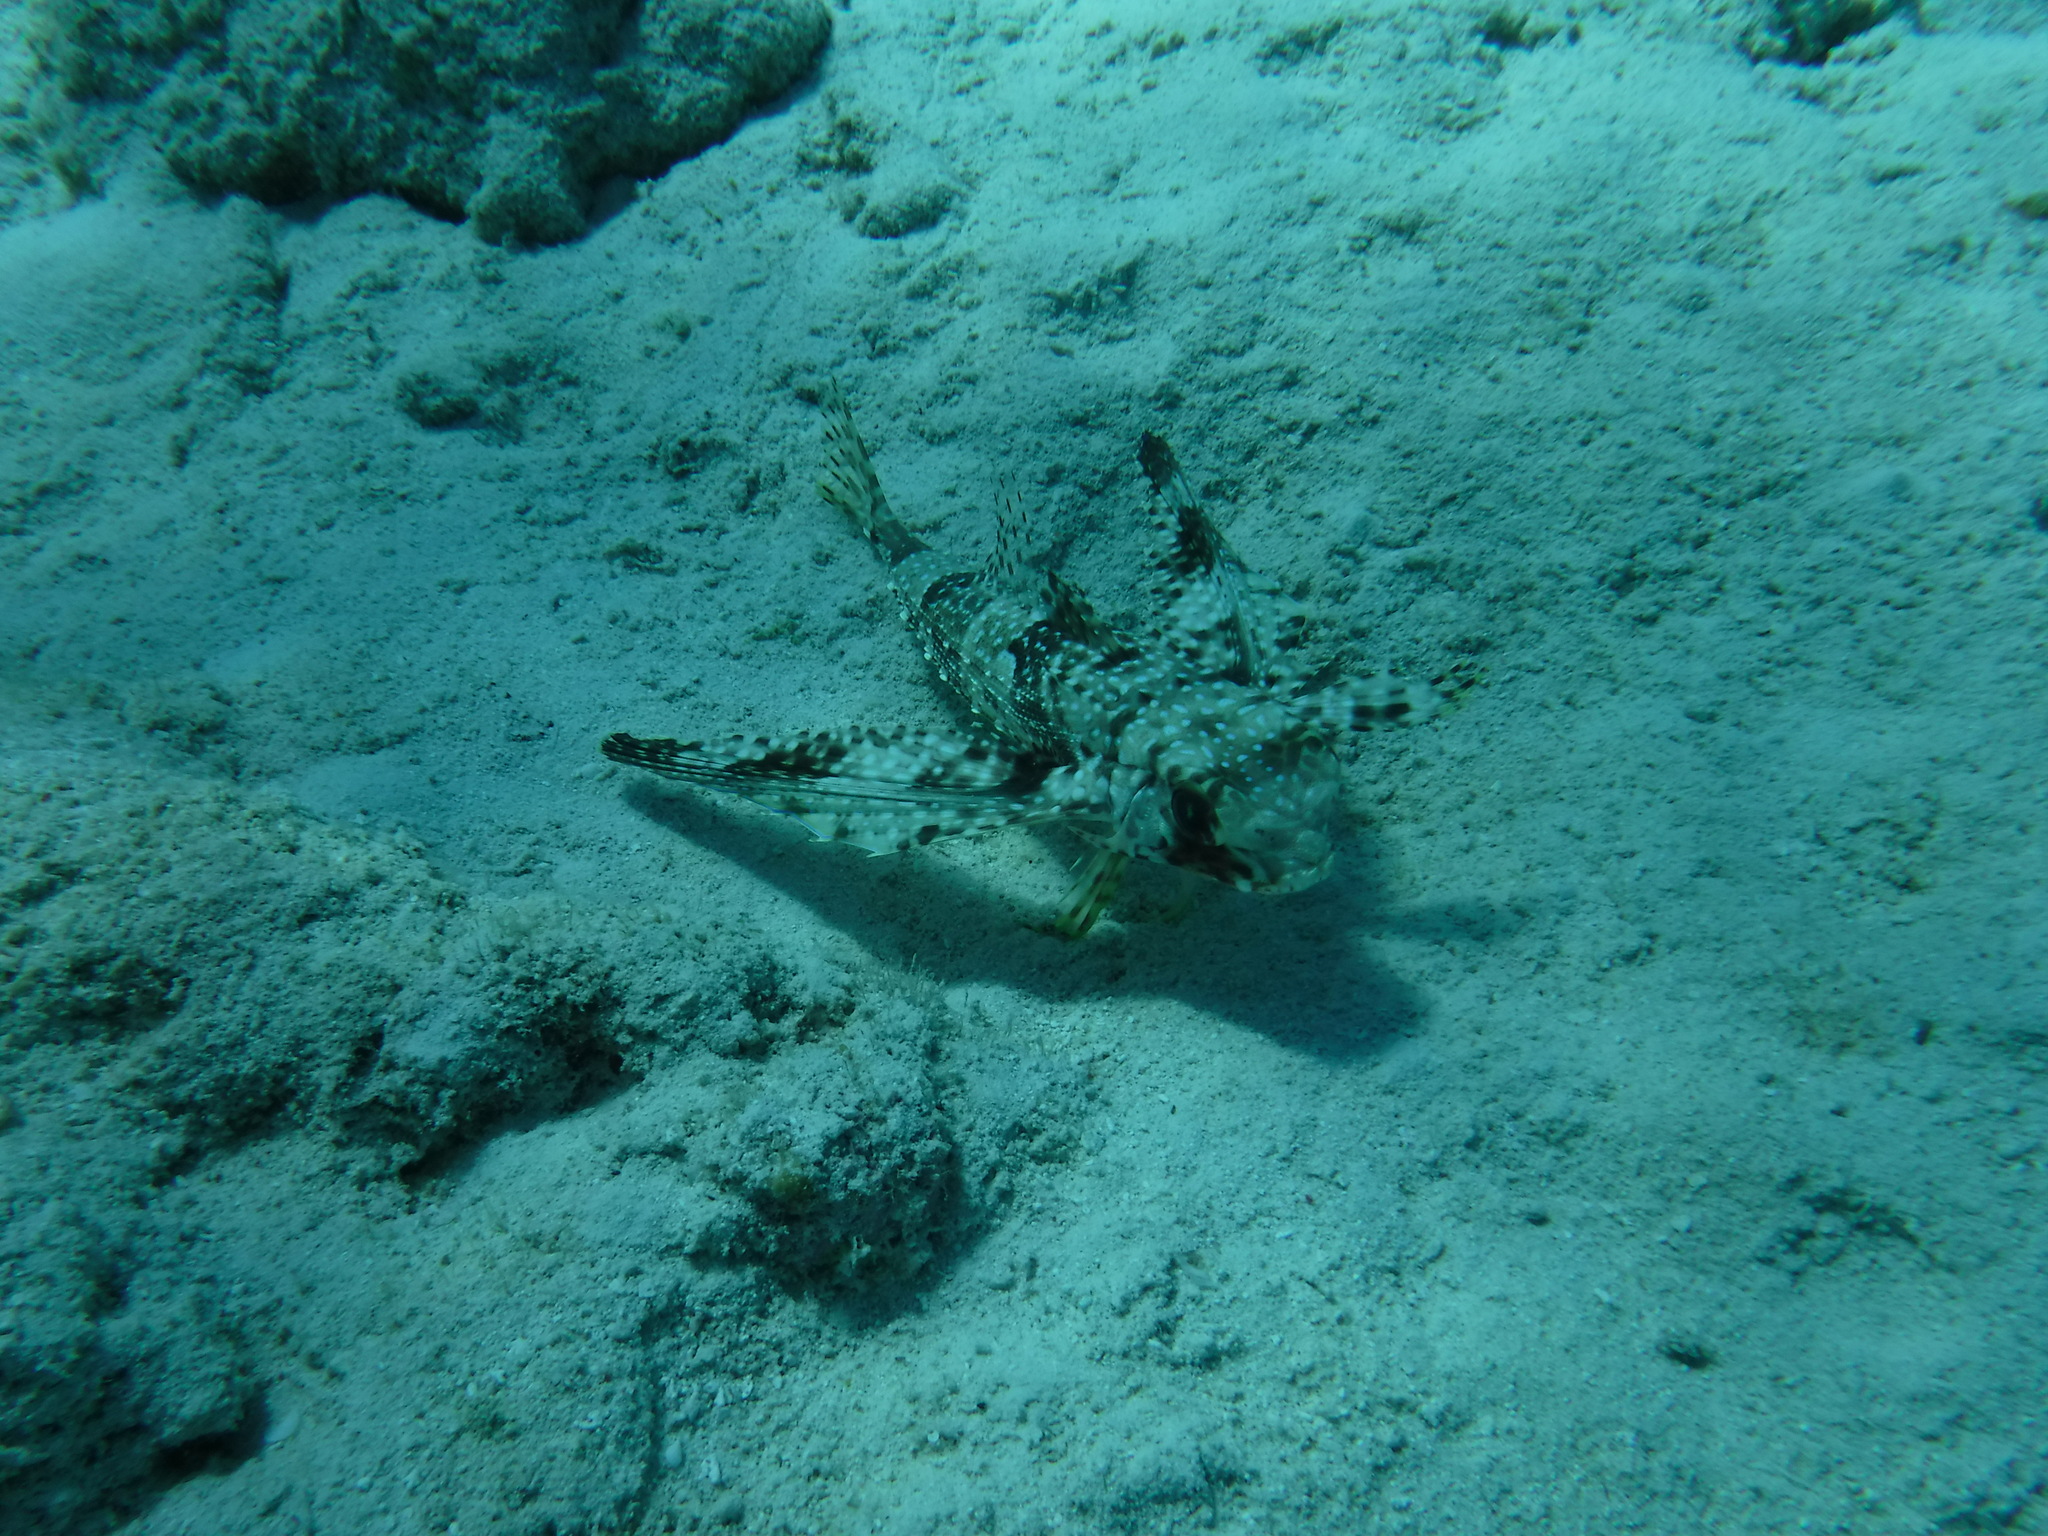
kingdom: Animalia
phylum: Chordata
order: Scorpaeniformes
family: Dactylopteridae
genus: Dactylopterus
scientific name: Dactylopterus volitans
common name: Flying gurnard
